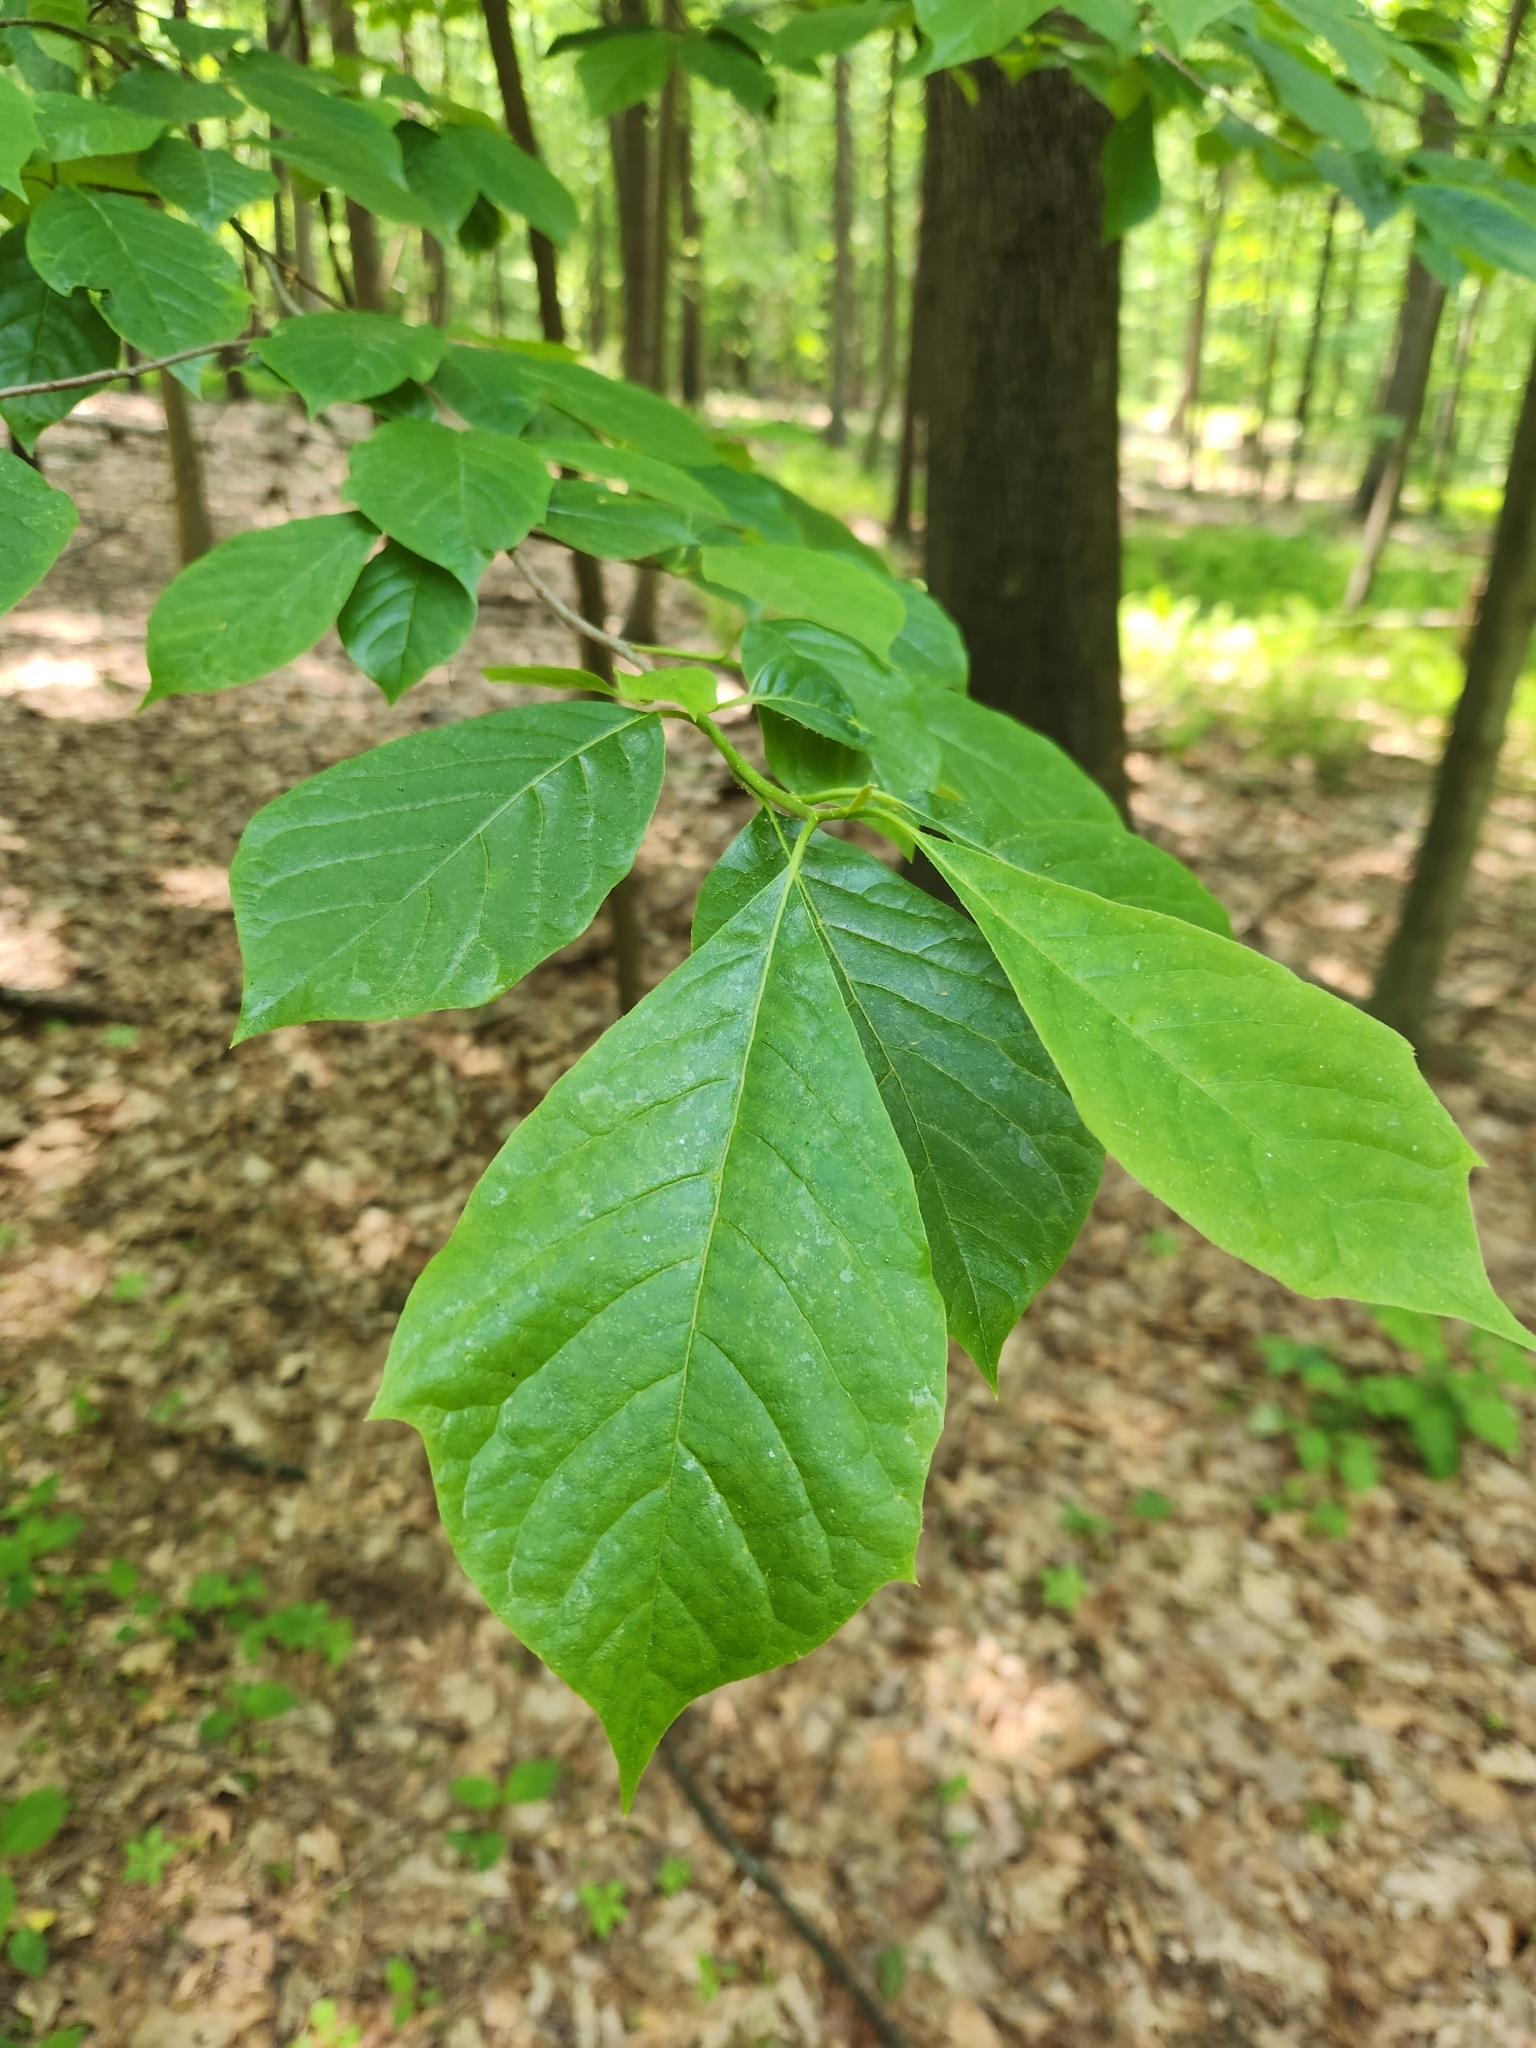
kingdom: Plantae
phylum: Tracheophyta
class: Magnoliopsida
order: Cornales
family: Nyssaceae
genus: Nyssa
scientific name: Nyssa sylvatica
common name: Black tupelo
